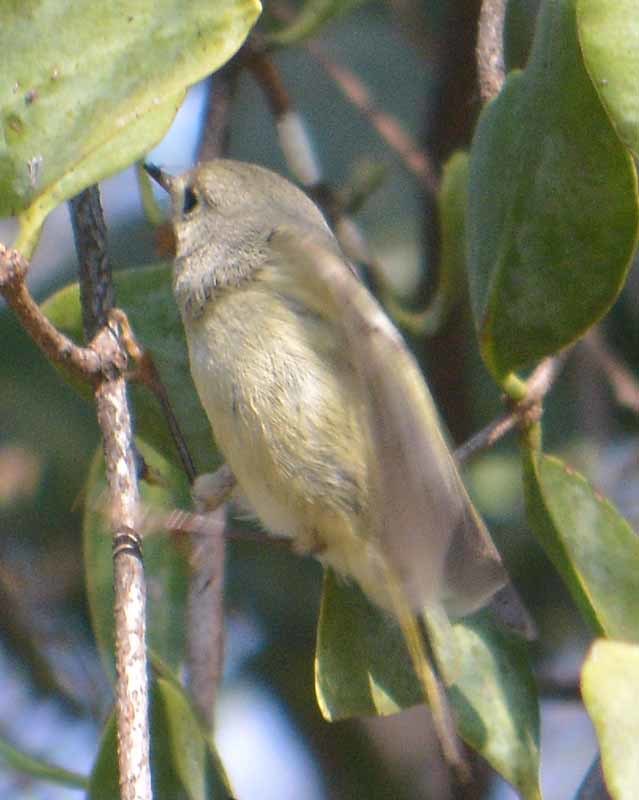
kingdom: Animalia
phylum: Chordata
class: Aves
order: Passeriformes
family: Regulidae
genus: Regulus
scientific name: Regulus calendula
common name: Ruby-crowned kinglet
